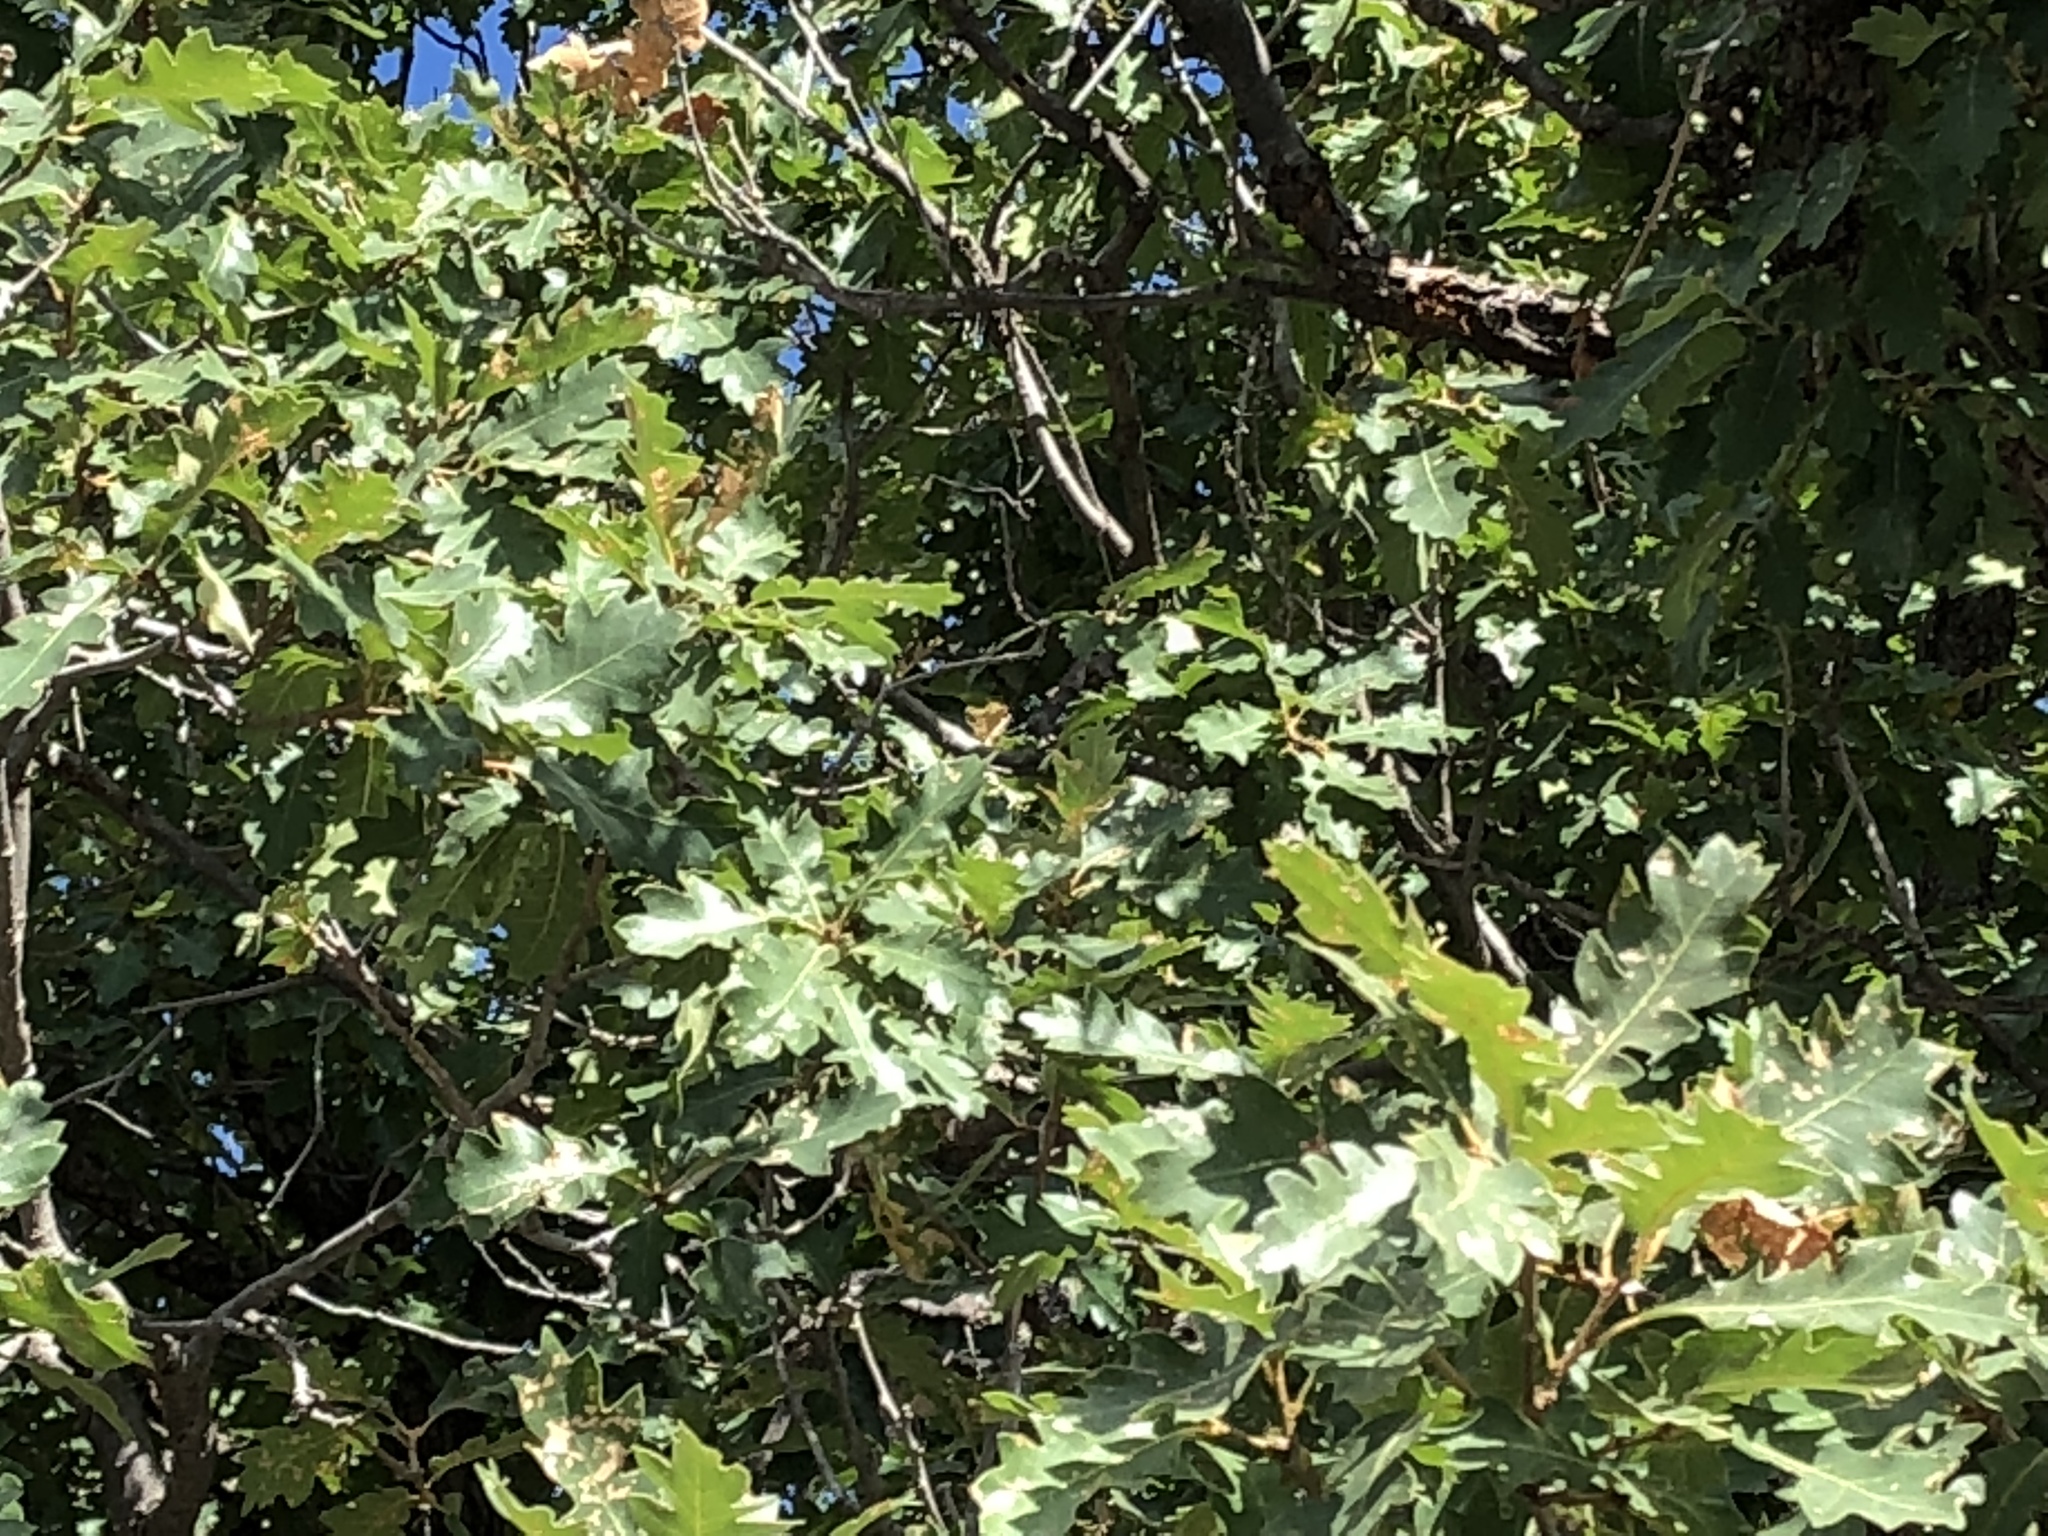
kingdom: Plantae
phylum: Tracheophyta
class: Magnoliopsida
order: Fagales
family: Fagaceae
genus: Quercus
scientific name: Quercus gambelii
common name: Gambel oak
